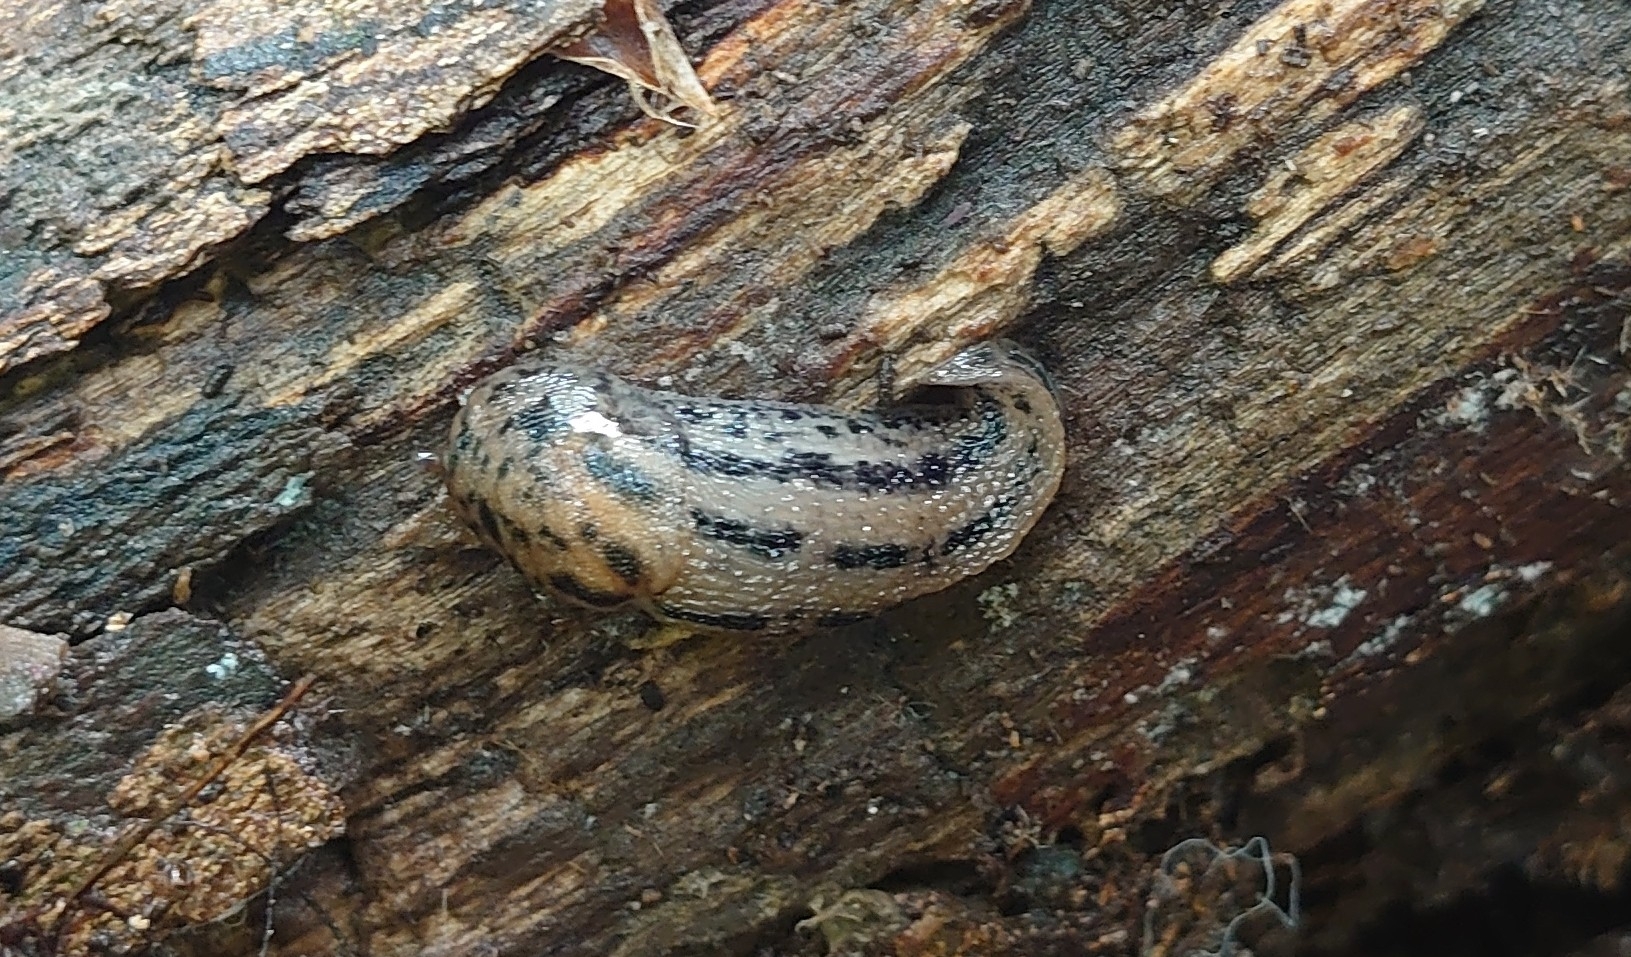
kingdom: Animalia
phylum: Mollusca
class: Gastropoda
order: Stylommatophora
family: Limacidae
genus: Limax
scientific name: Limax maximus
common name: Great grey slug
